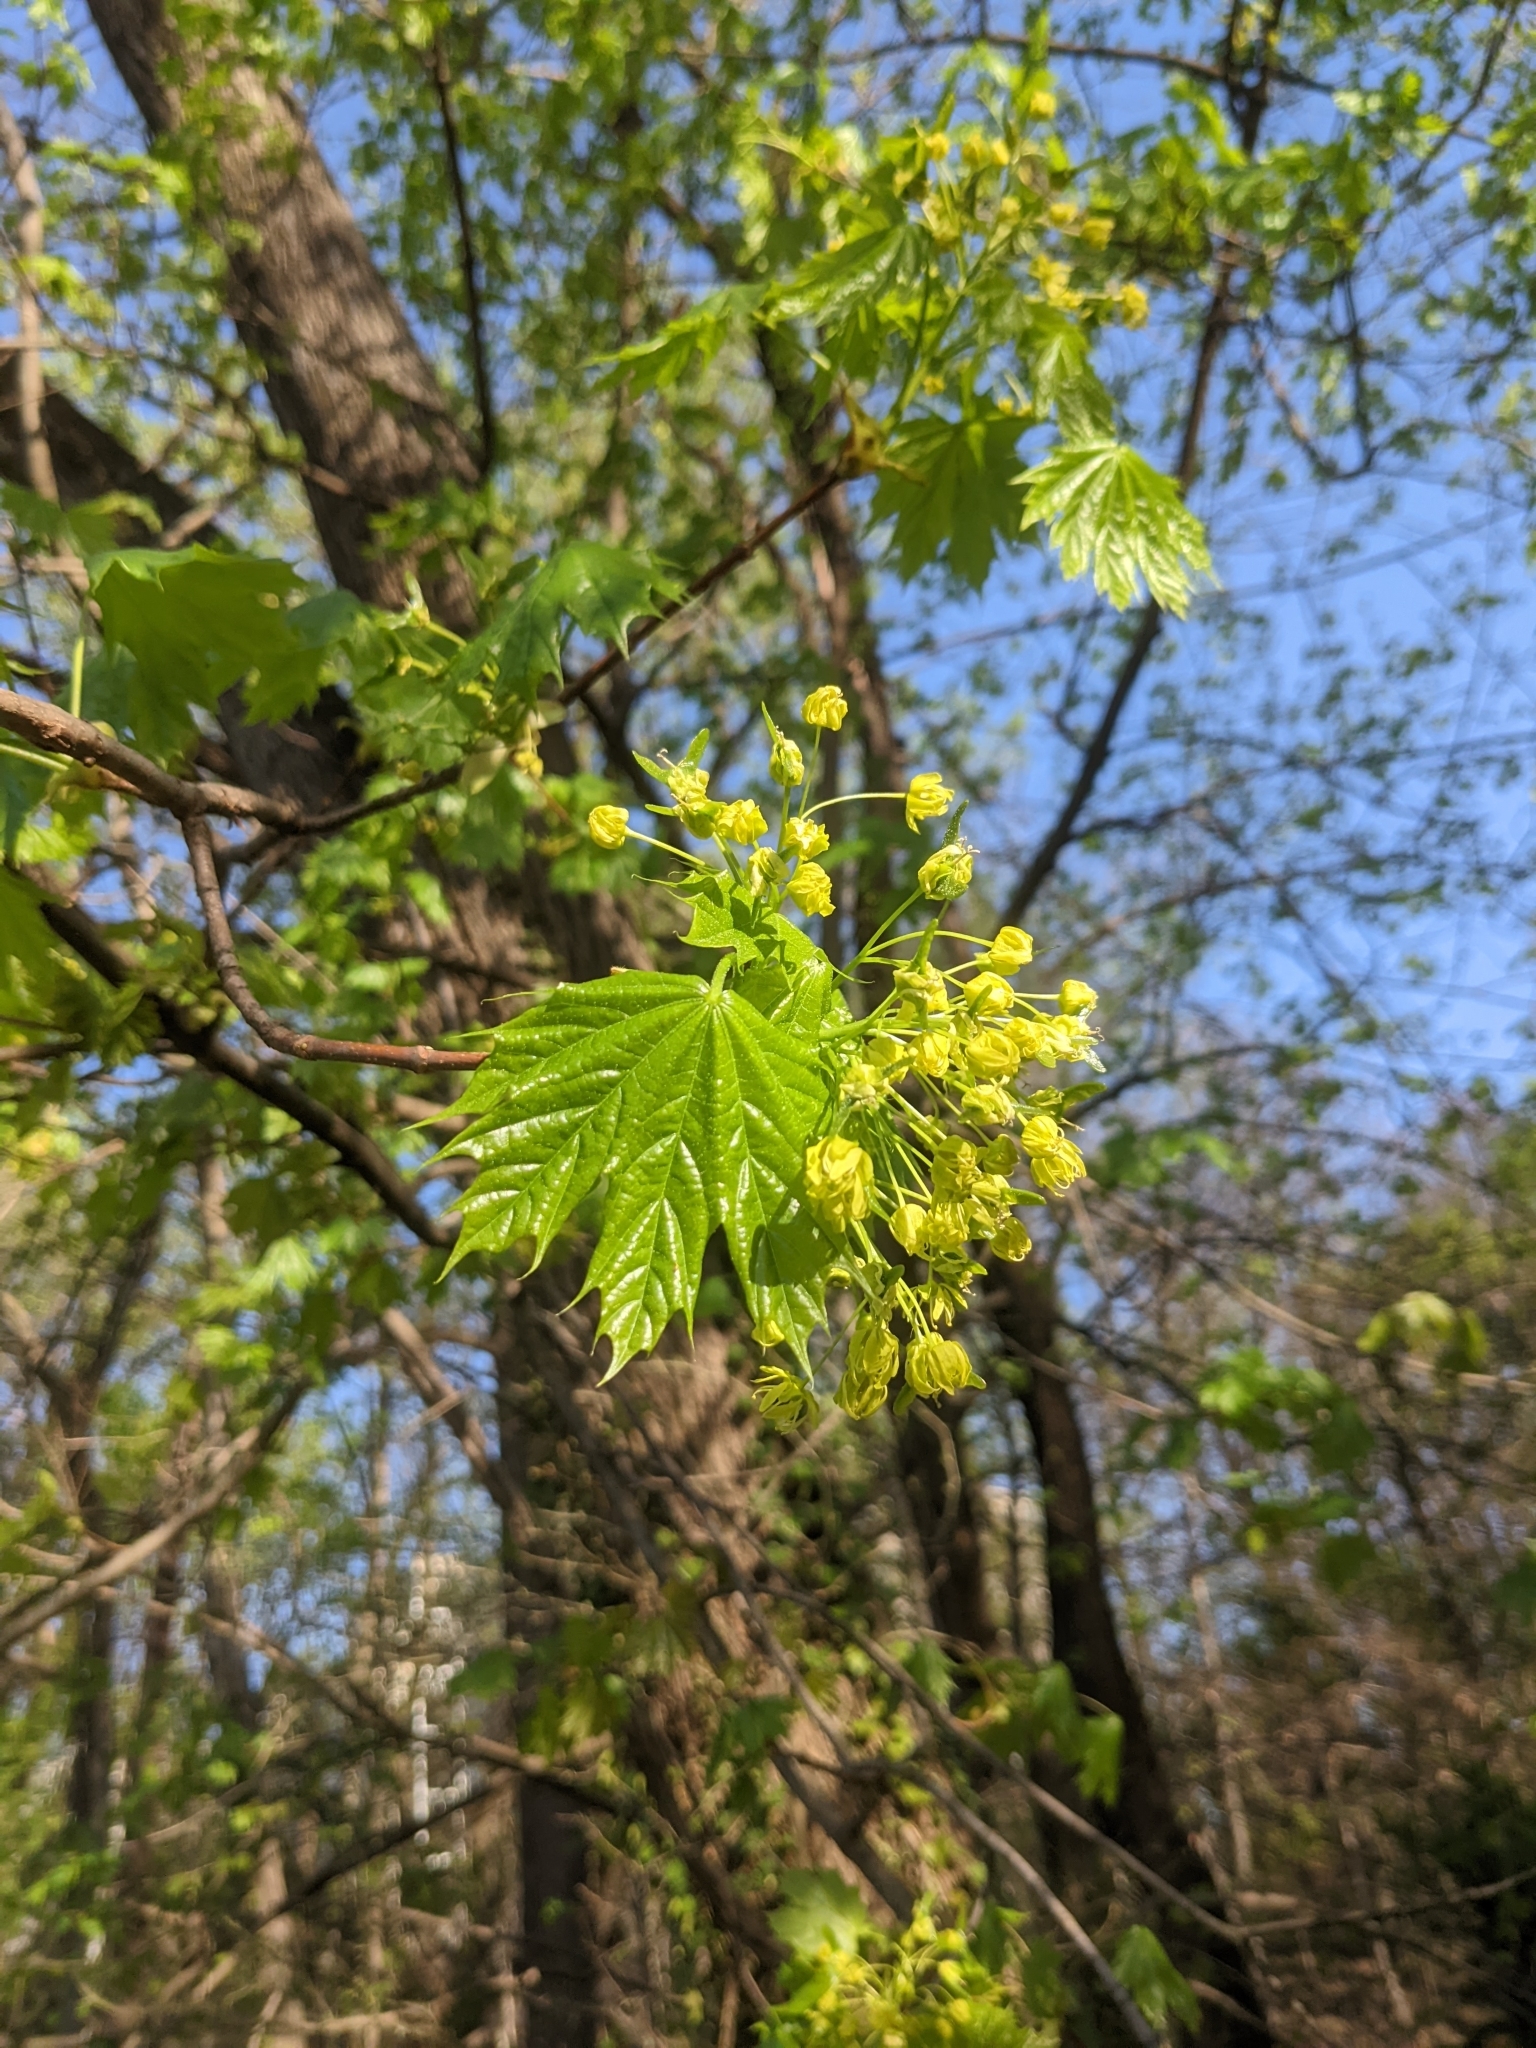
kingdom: Plantae
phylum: Tracheophyta
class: Magnoliopsida
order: Sapindales
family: Sapindaceae
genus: Acer
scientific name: Acer platanoides
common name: Norway maple
